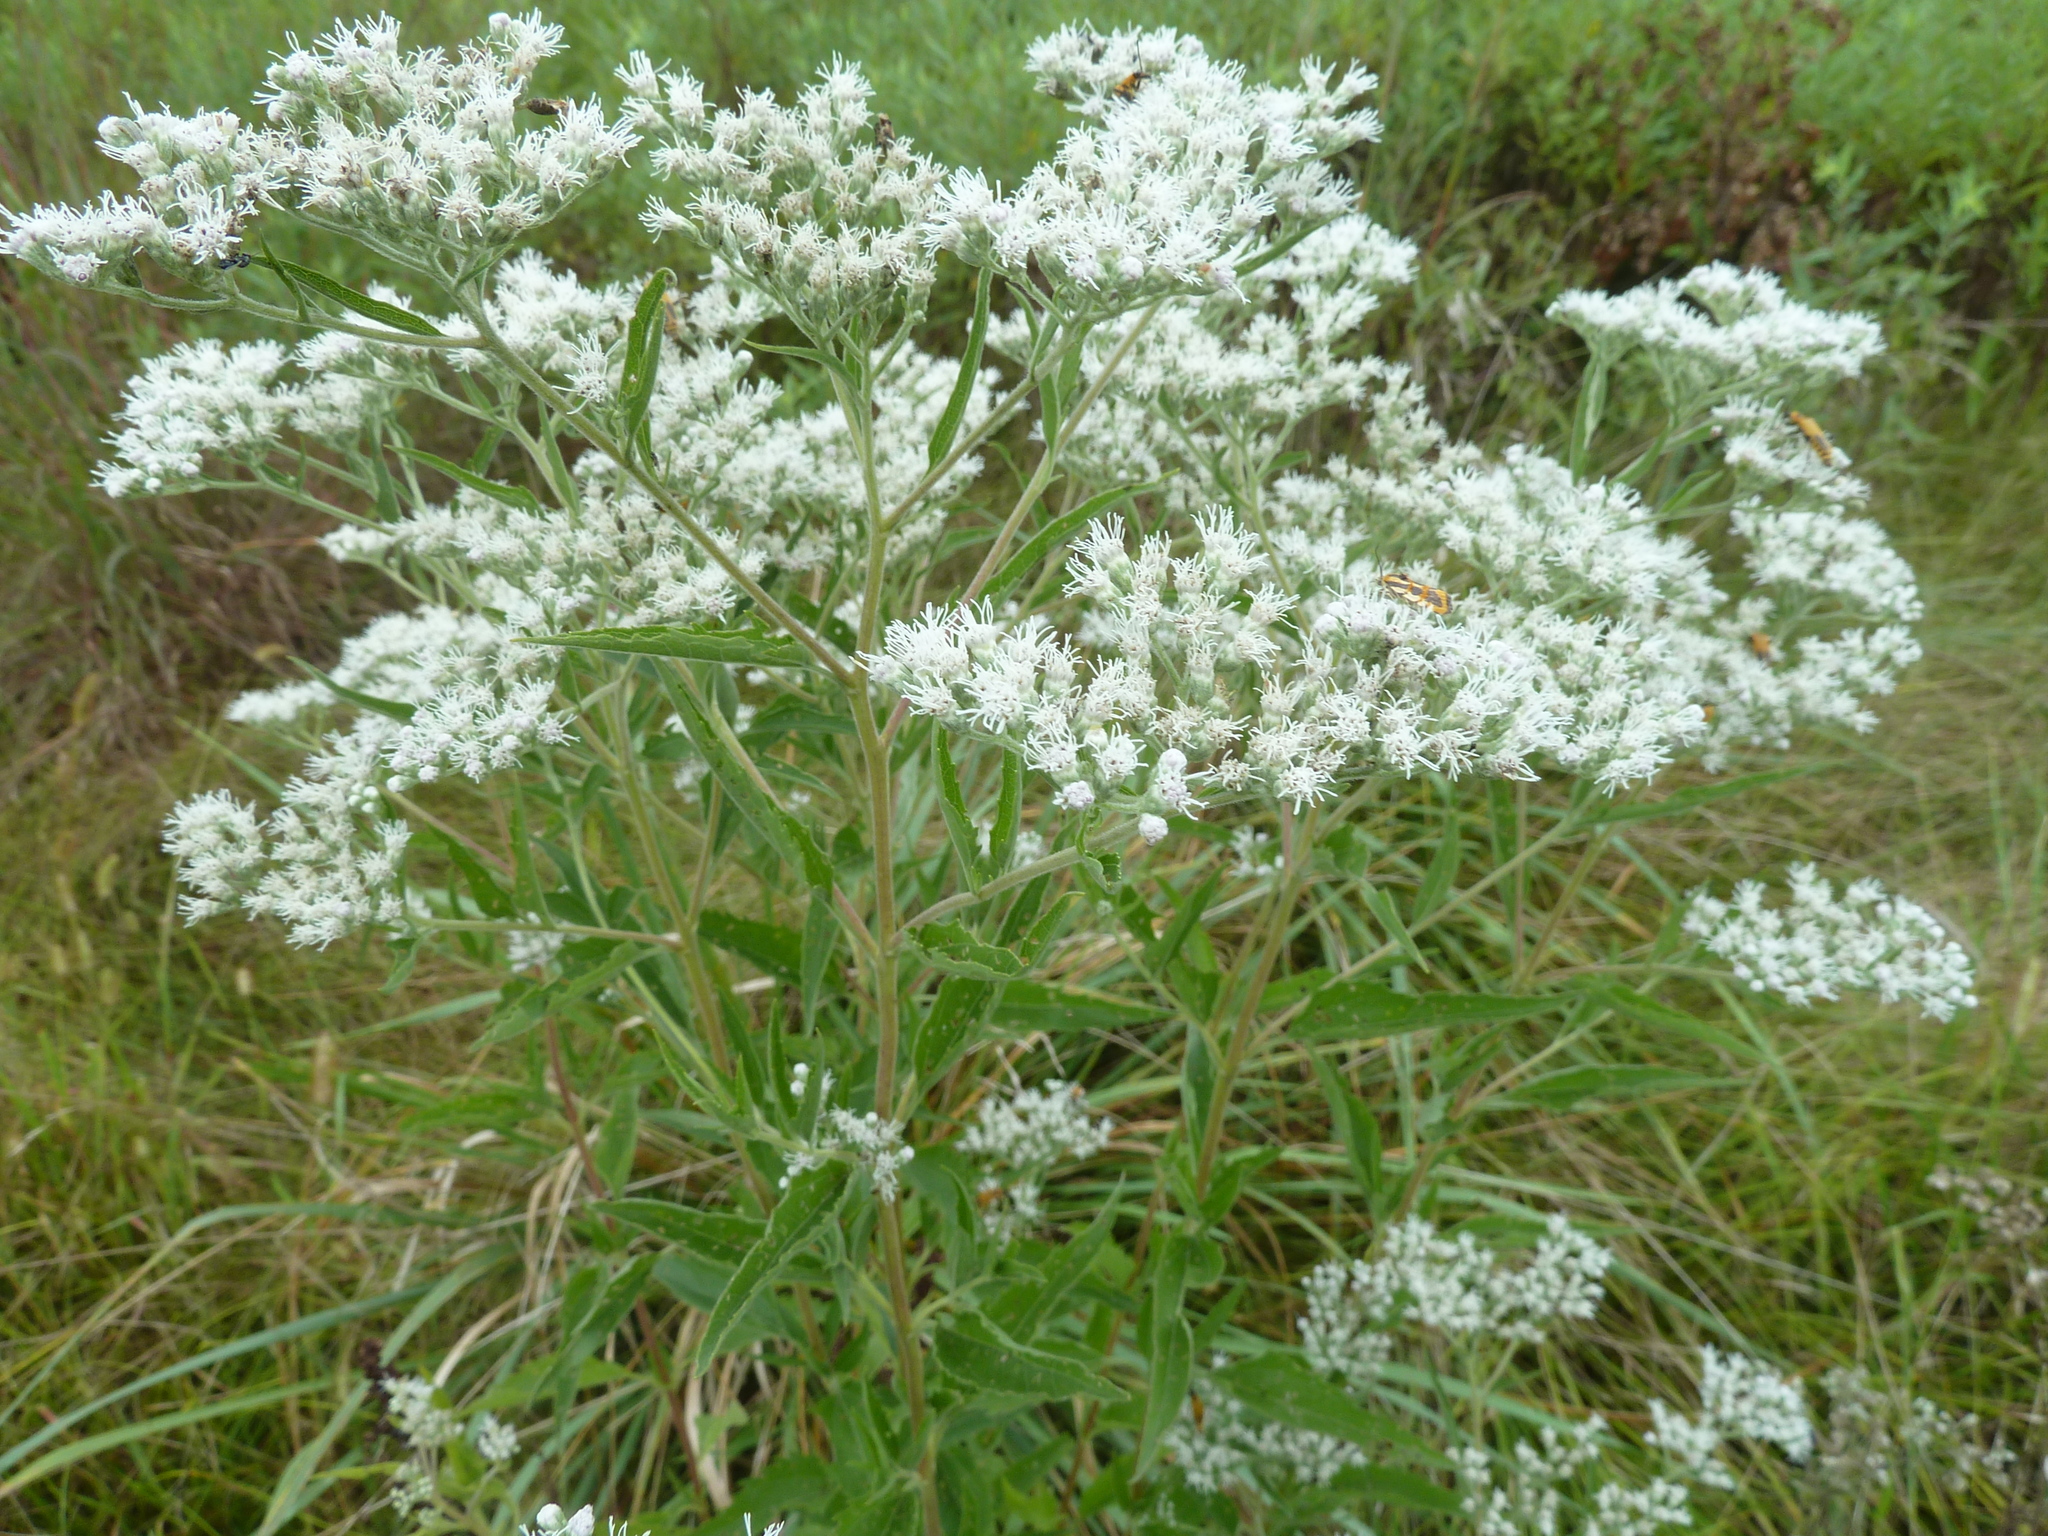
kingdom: Plantae
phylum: Tracheophyta
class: Magnoliopsida
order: Asterales
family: Asteraceae
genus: Eupatorium
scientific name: Eupatorium serotinum
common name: Late boneset
